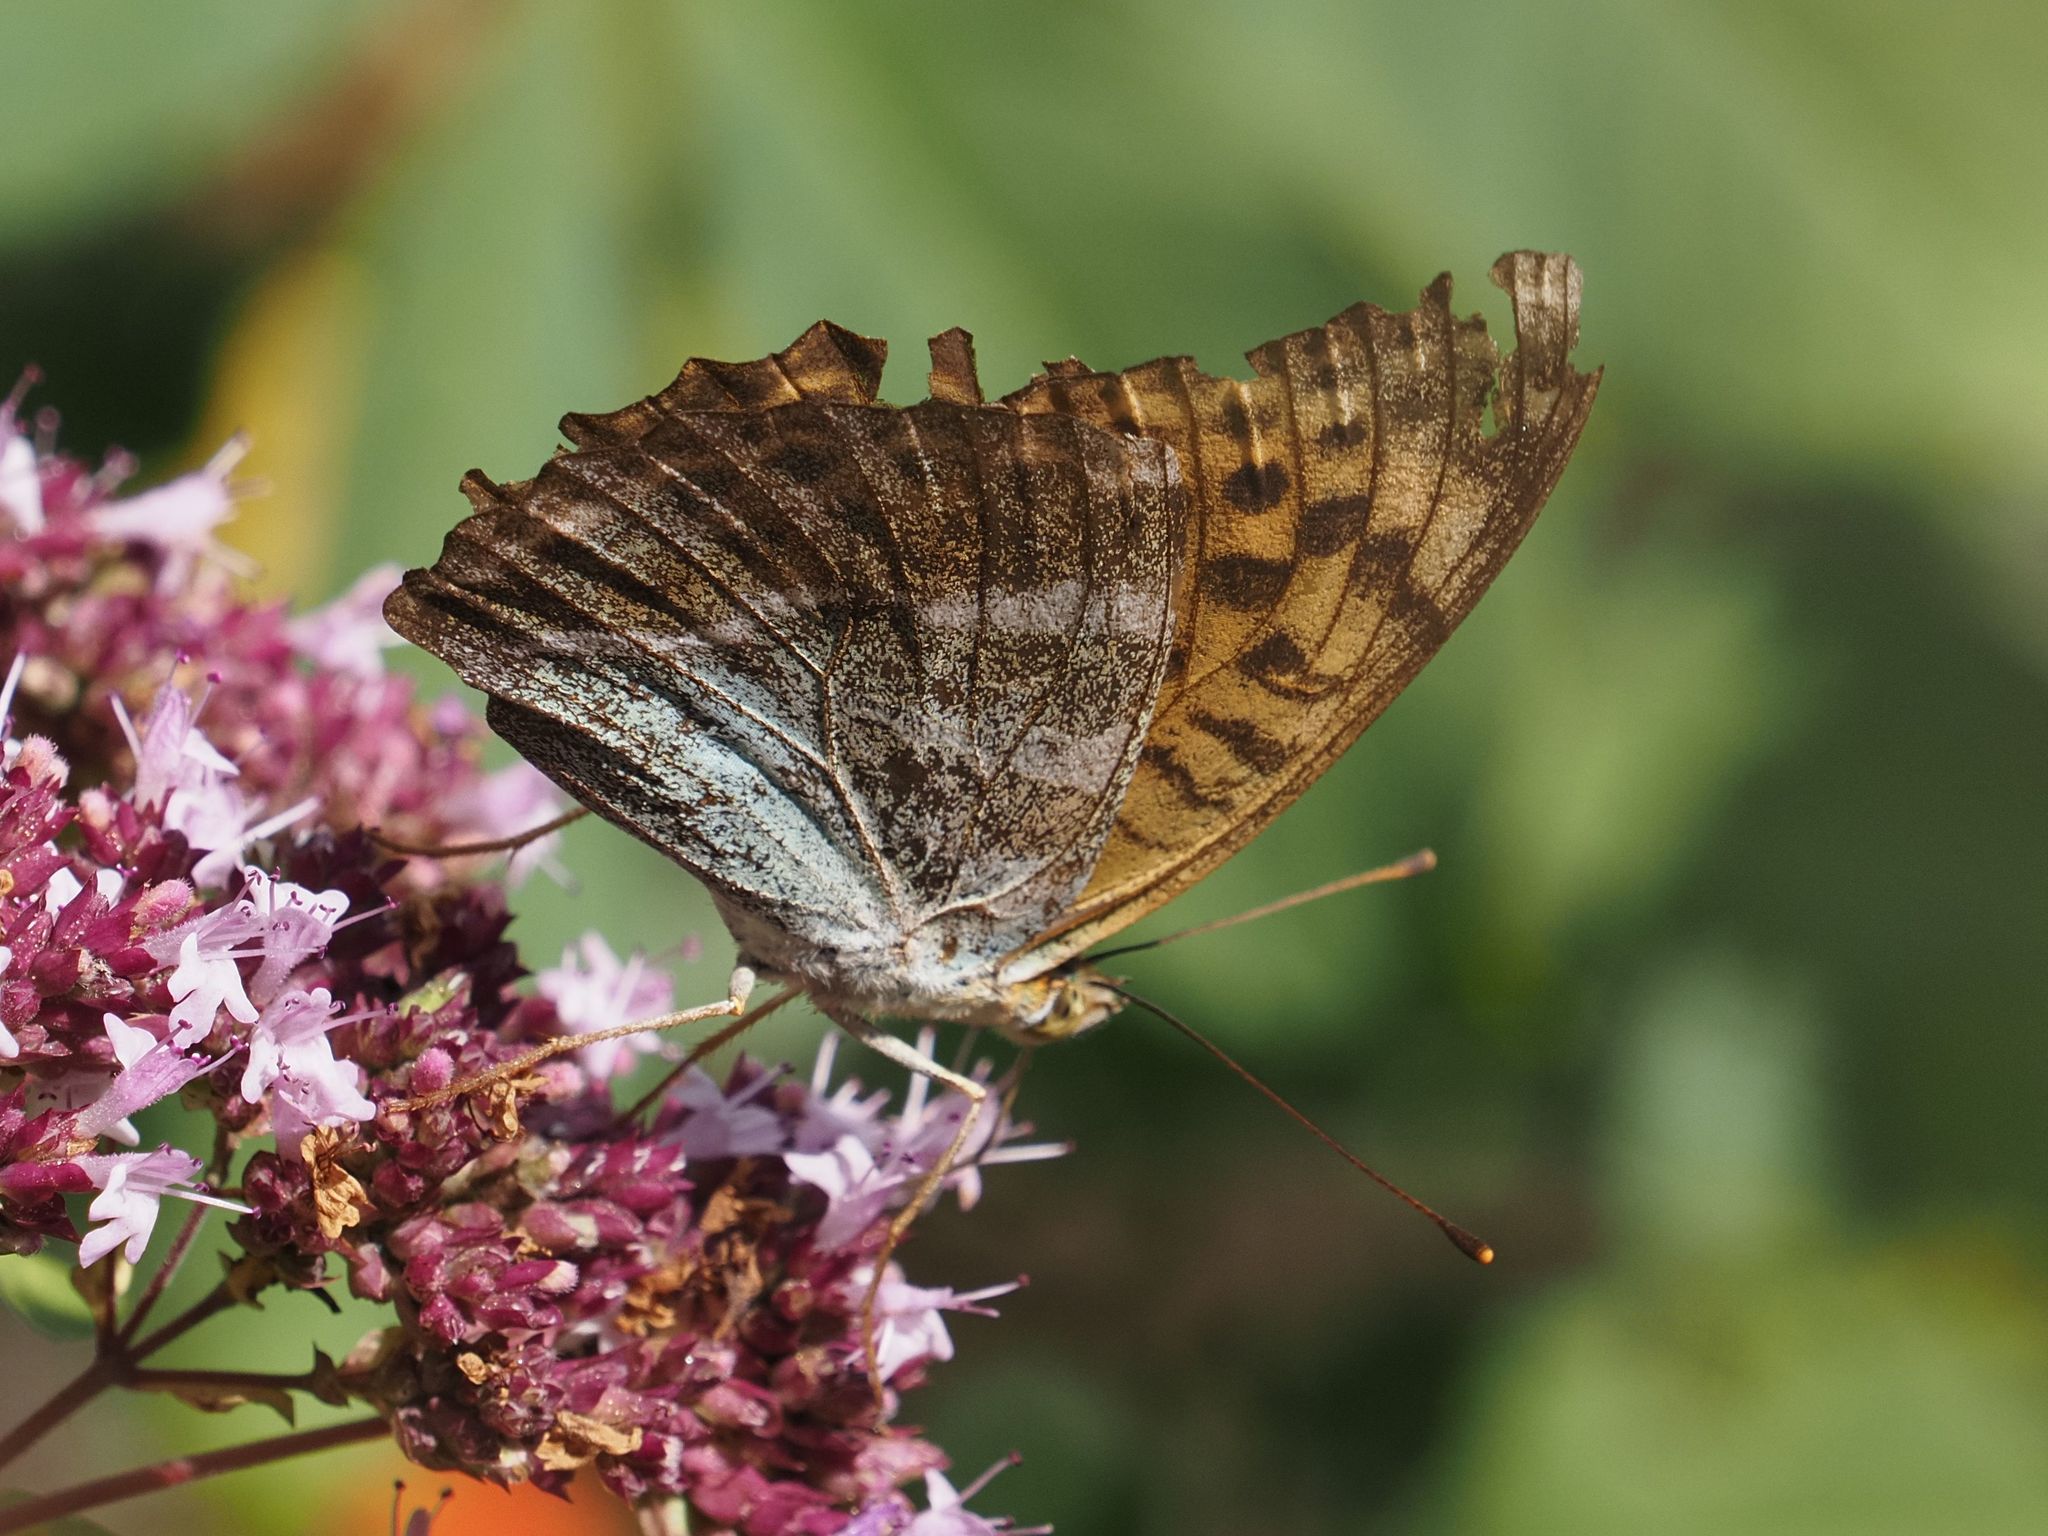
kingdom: Animalia
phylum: Arthropoda
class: Insecta
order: Lepidoptera
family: Nymphalidae
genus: Argynnis
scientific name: Argynnis paphia
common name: Silver-washed fritillary
